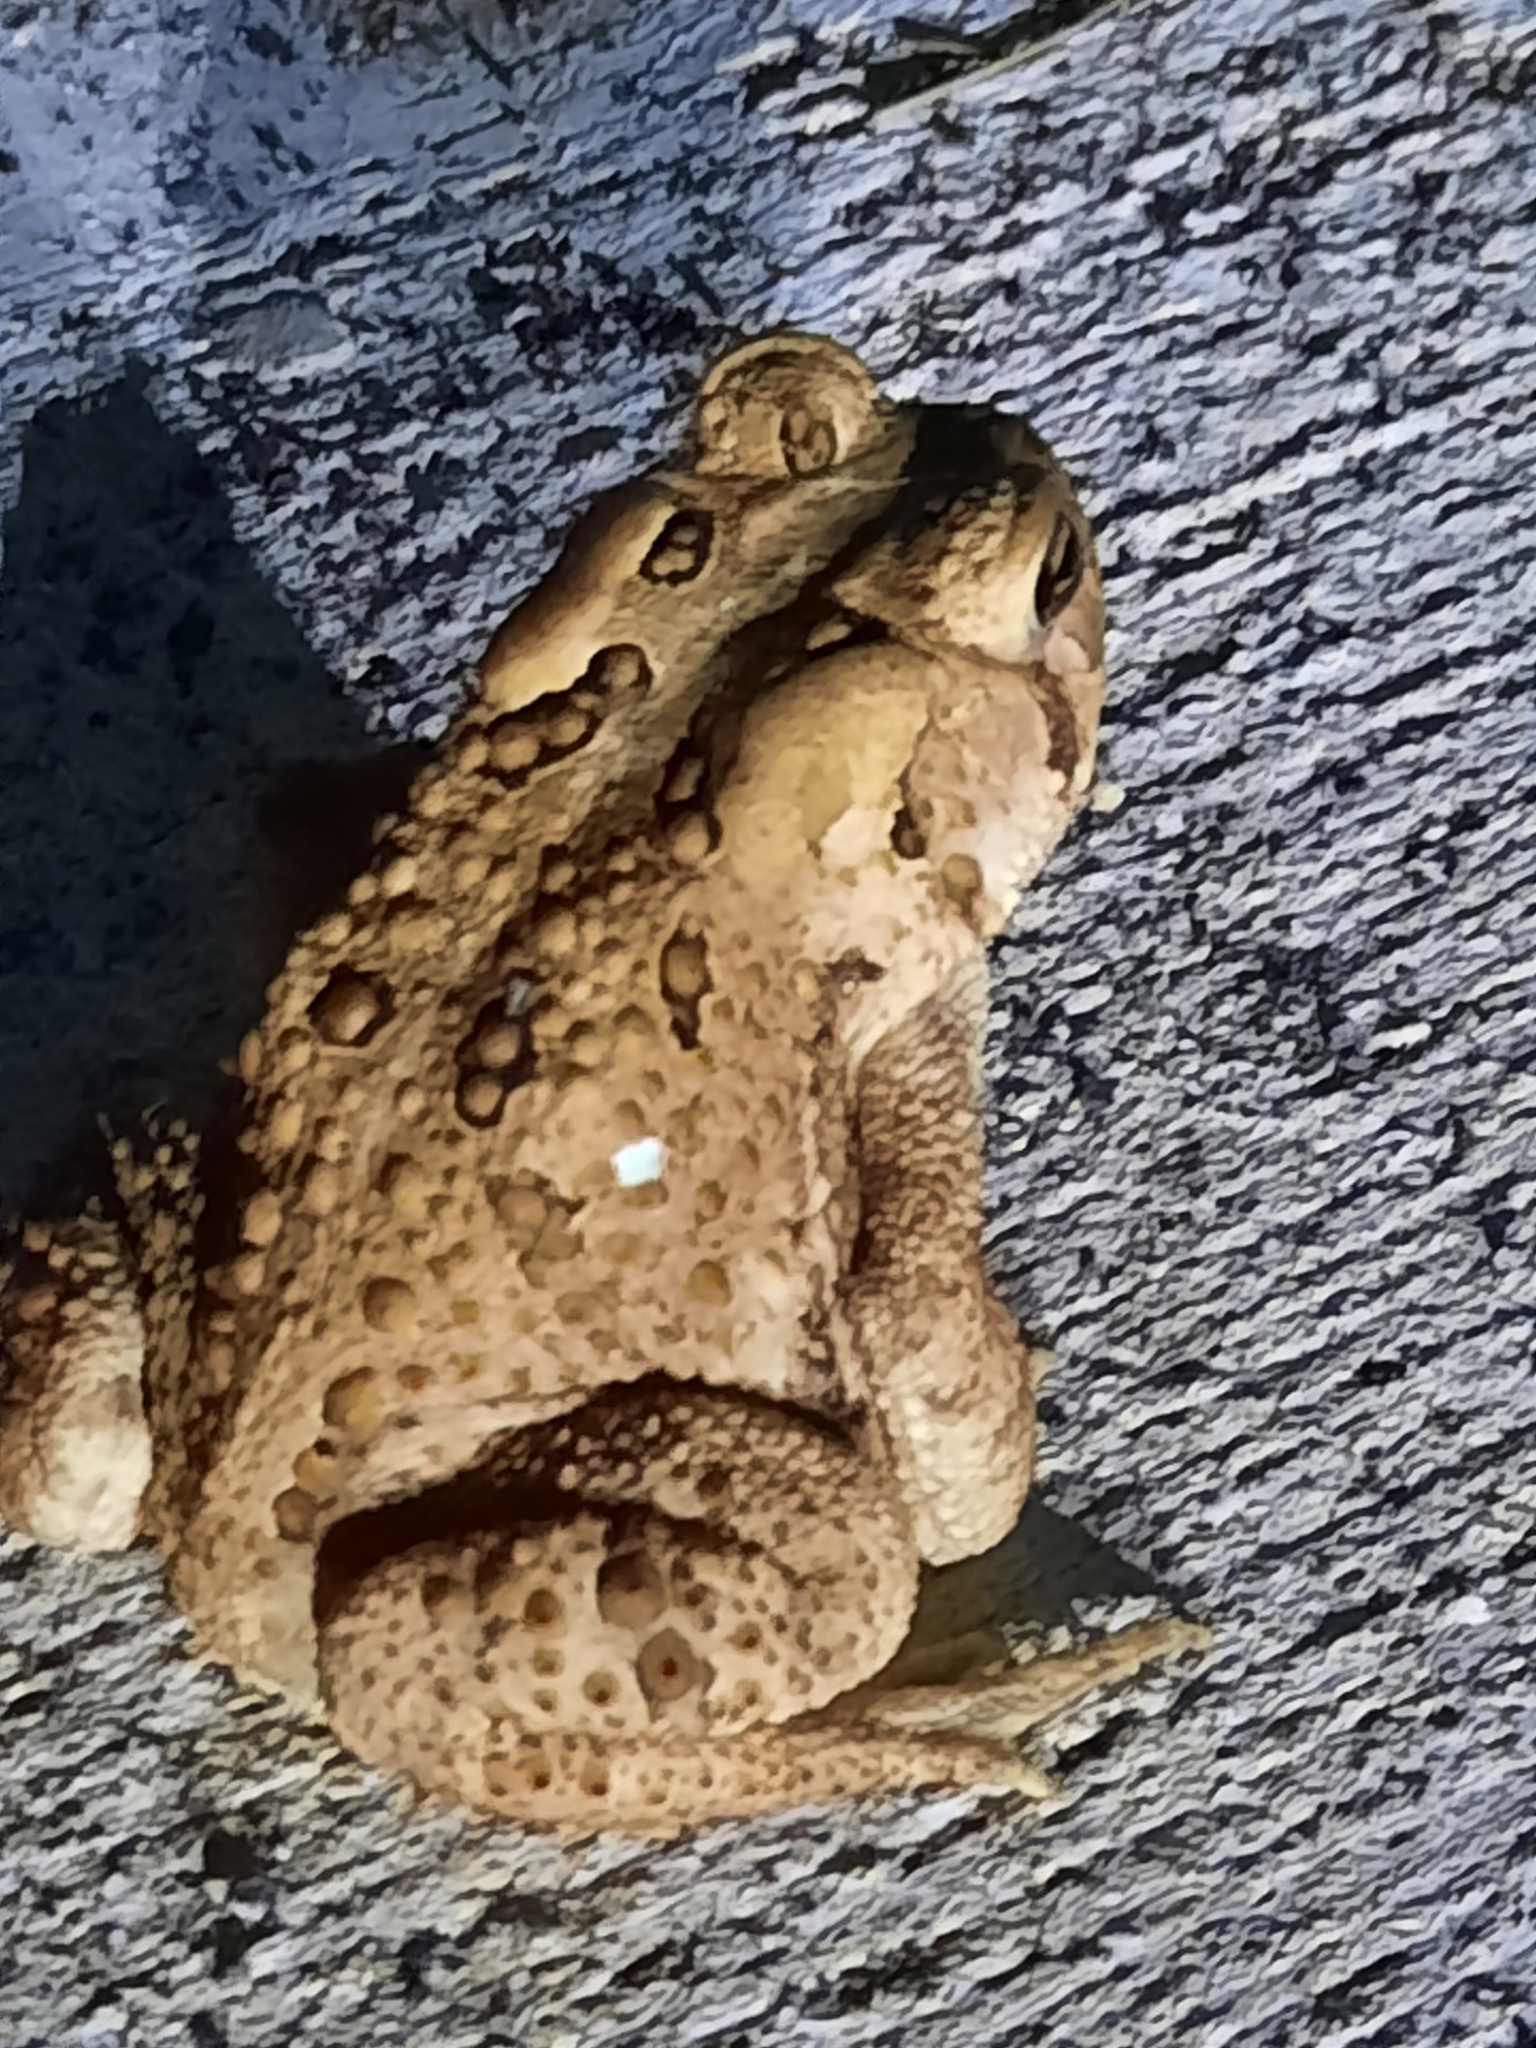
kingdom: Animalia
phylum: Chordata
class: Amphibia
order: Anura
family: Bufonidae
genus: Anaxyrus
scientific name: Anaxyrus americanus
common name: American toad
